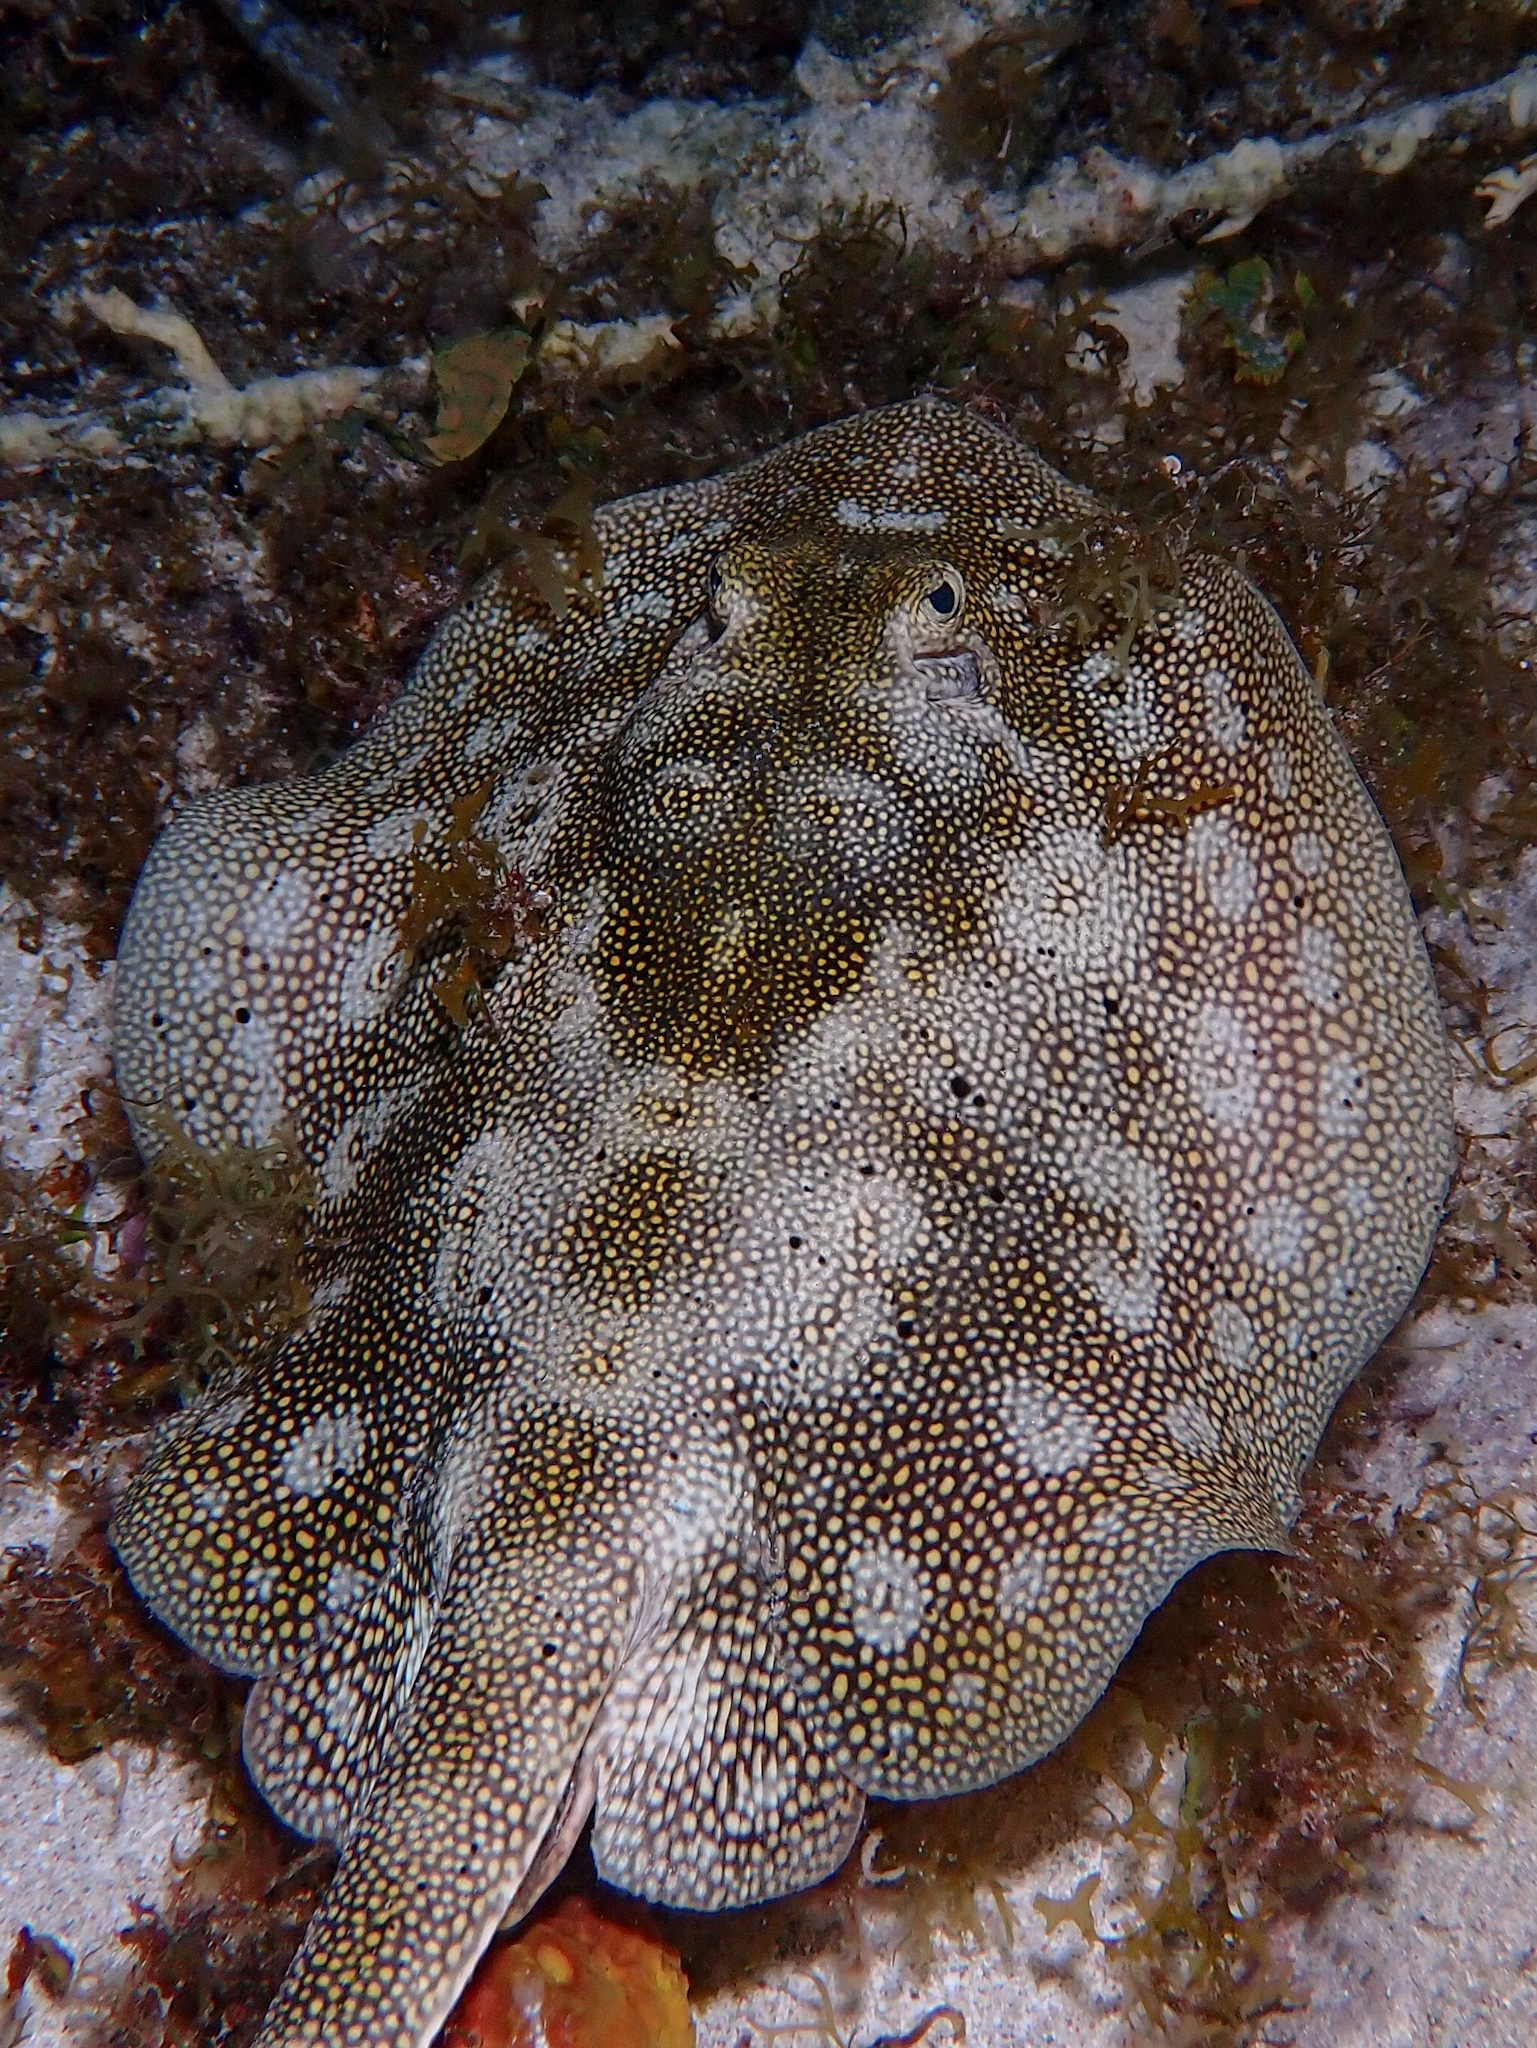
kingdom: Animalia
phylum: Chordata
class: Elasmobranchii
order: Myliobatiformes
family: Urotrygonidae
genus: Urobatis
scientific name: Urobatis jamaicensis
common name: Yellow stingray
